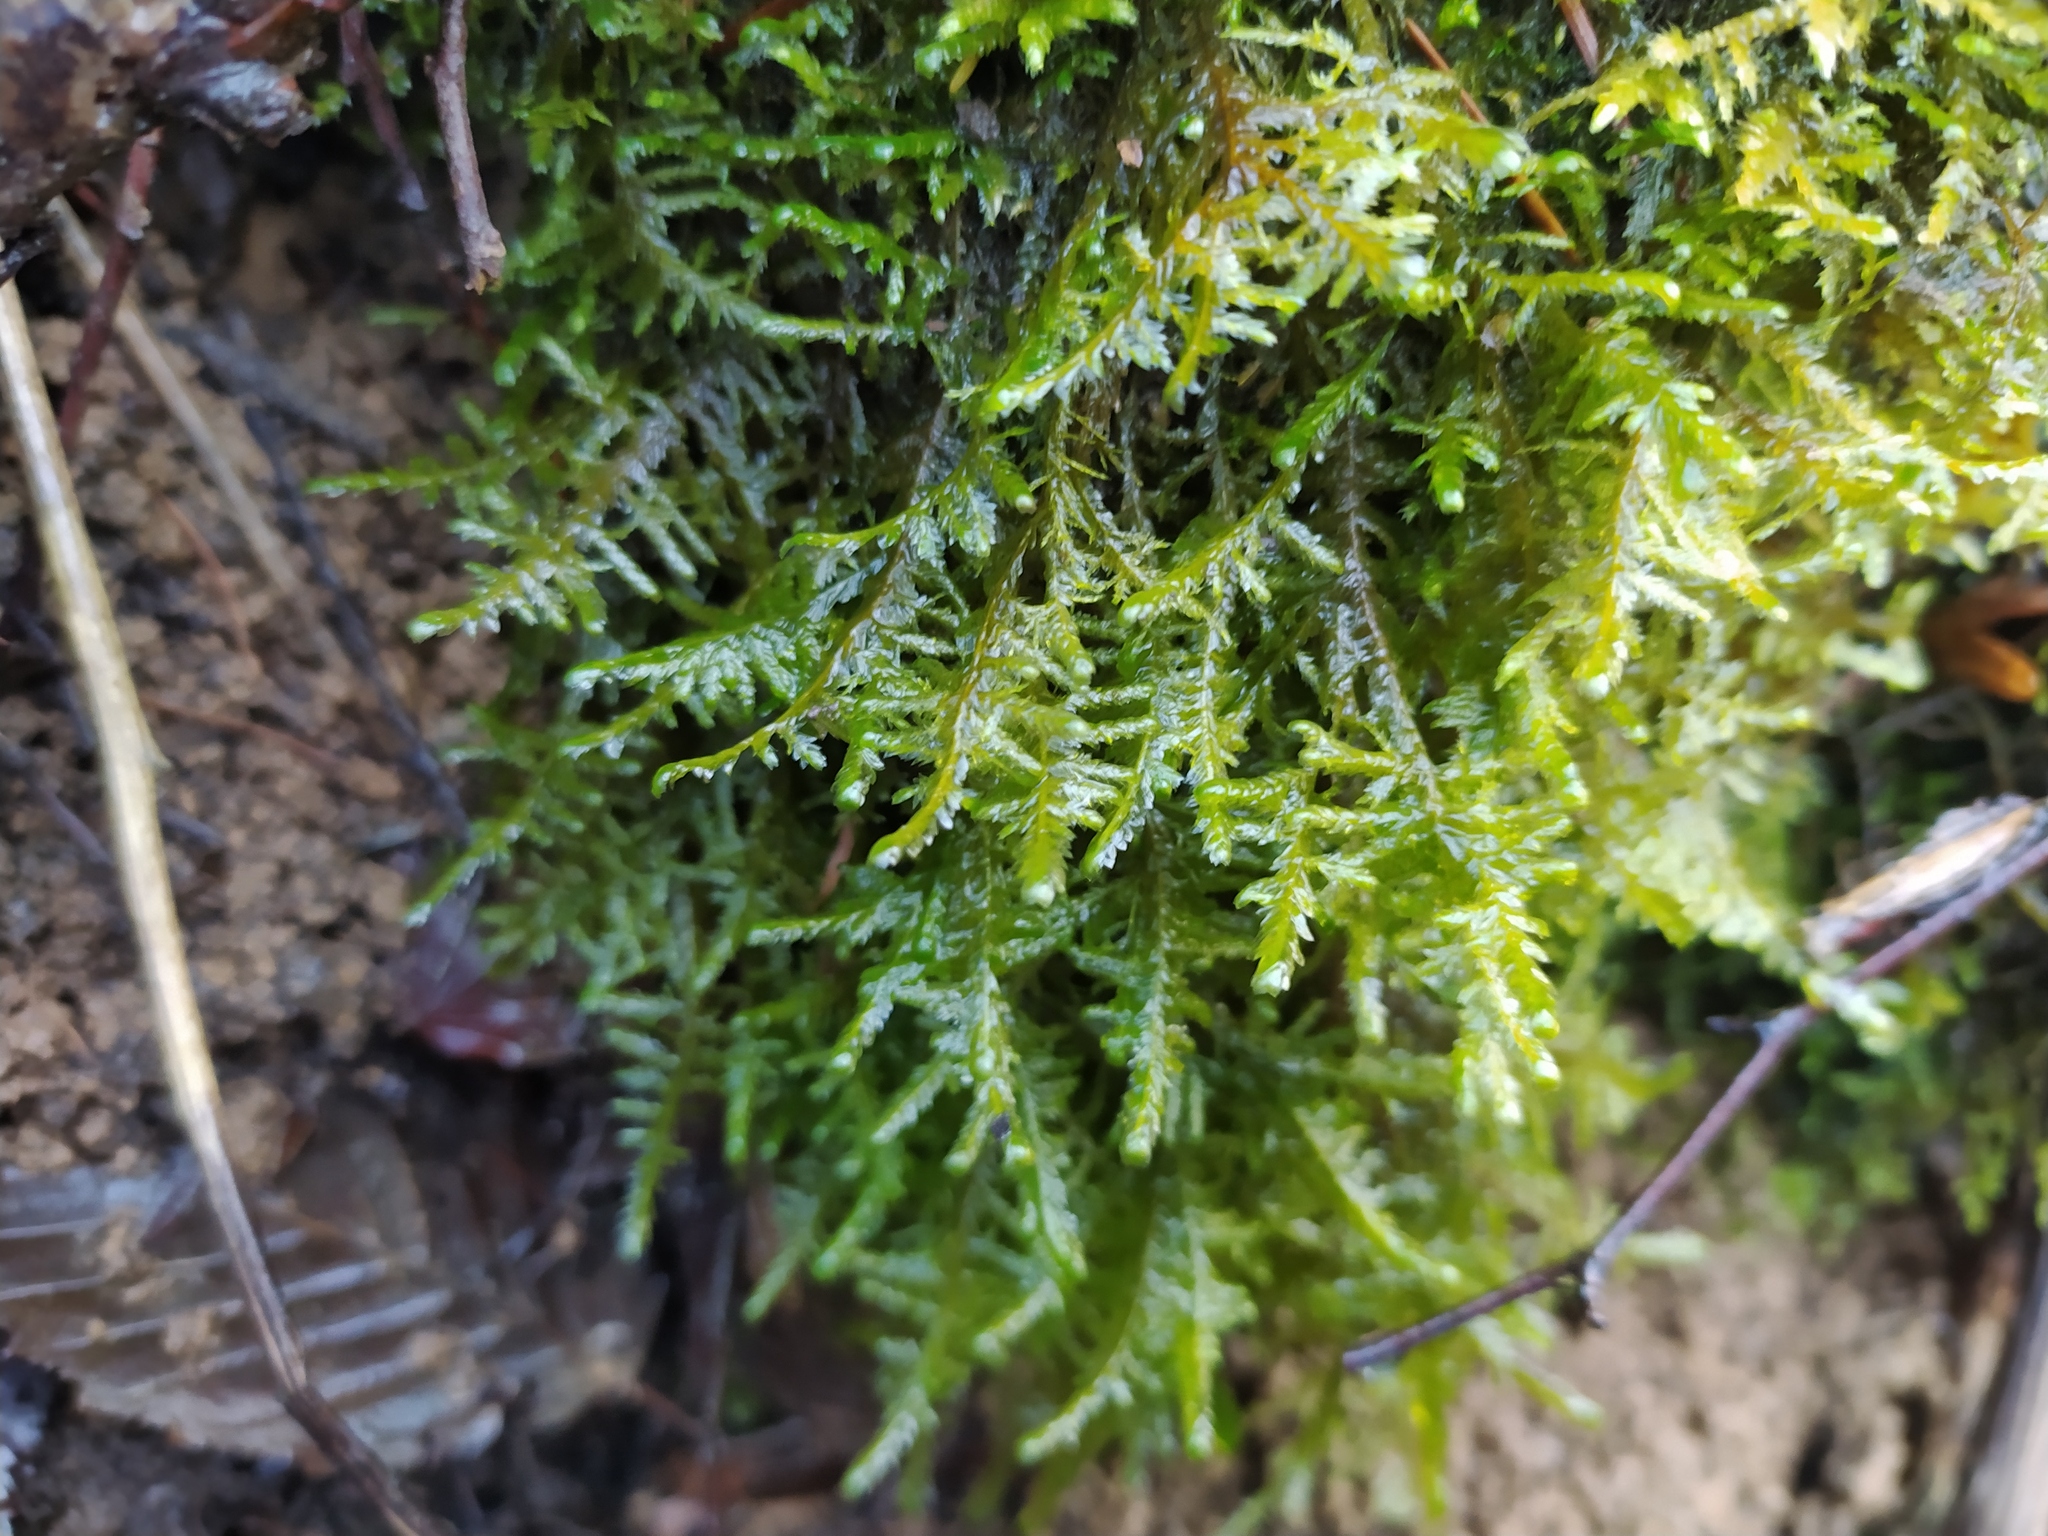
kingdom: Plantae
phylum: Bryophyta
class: Bryopsida
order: Hypnales
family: Neckeraceae
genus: Alleniella
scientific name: Alleniella complanata
